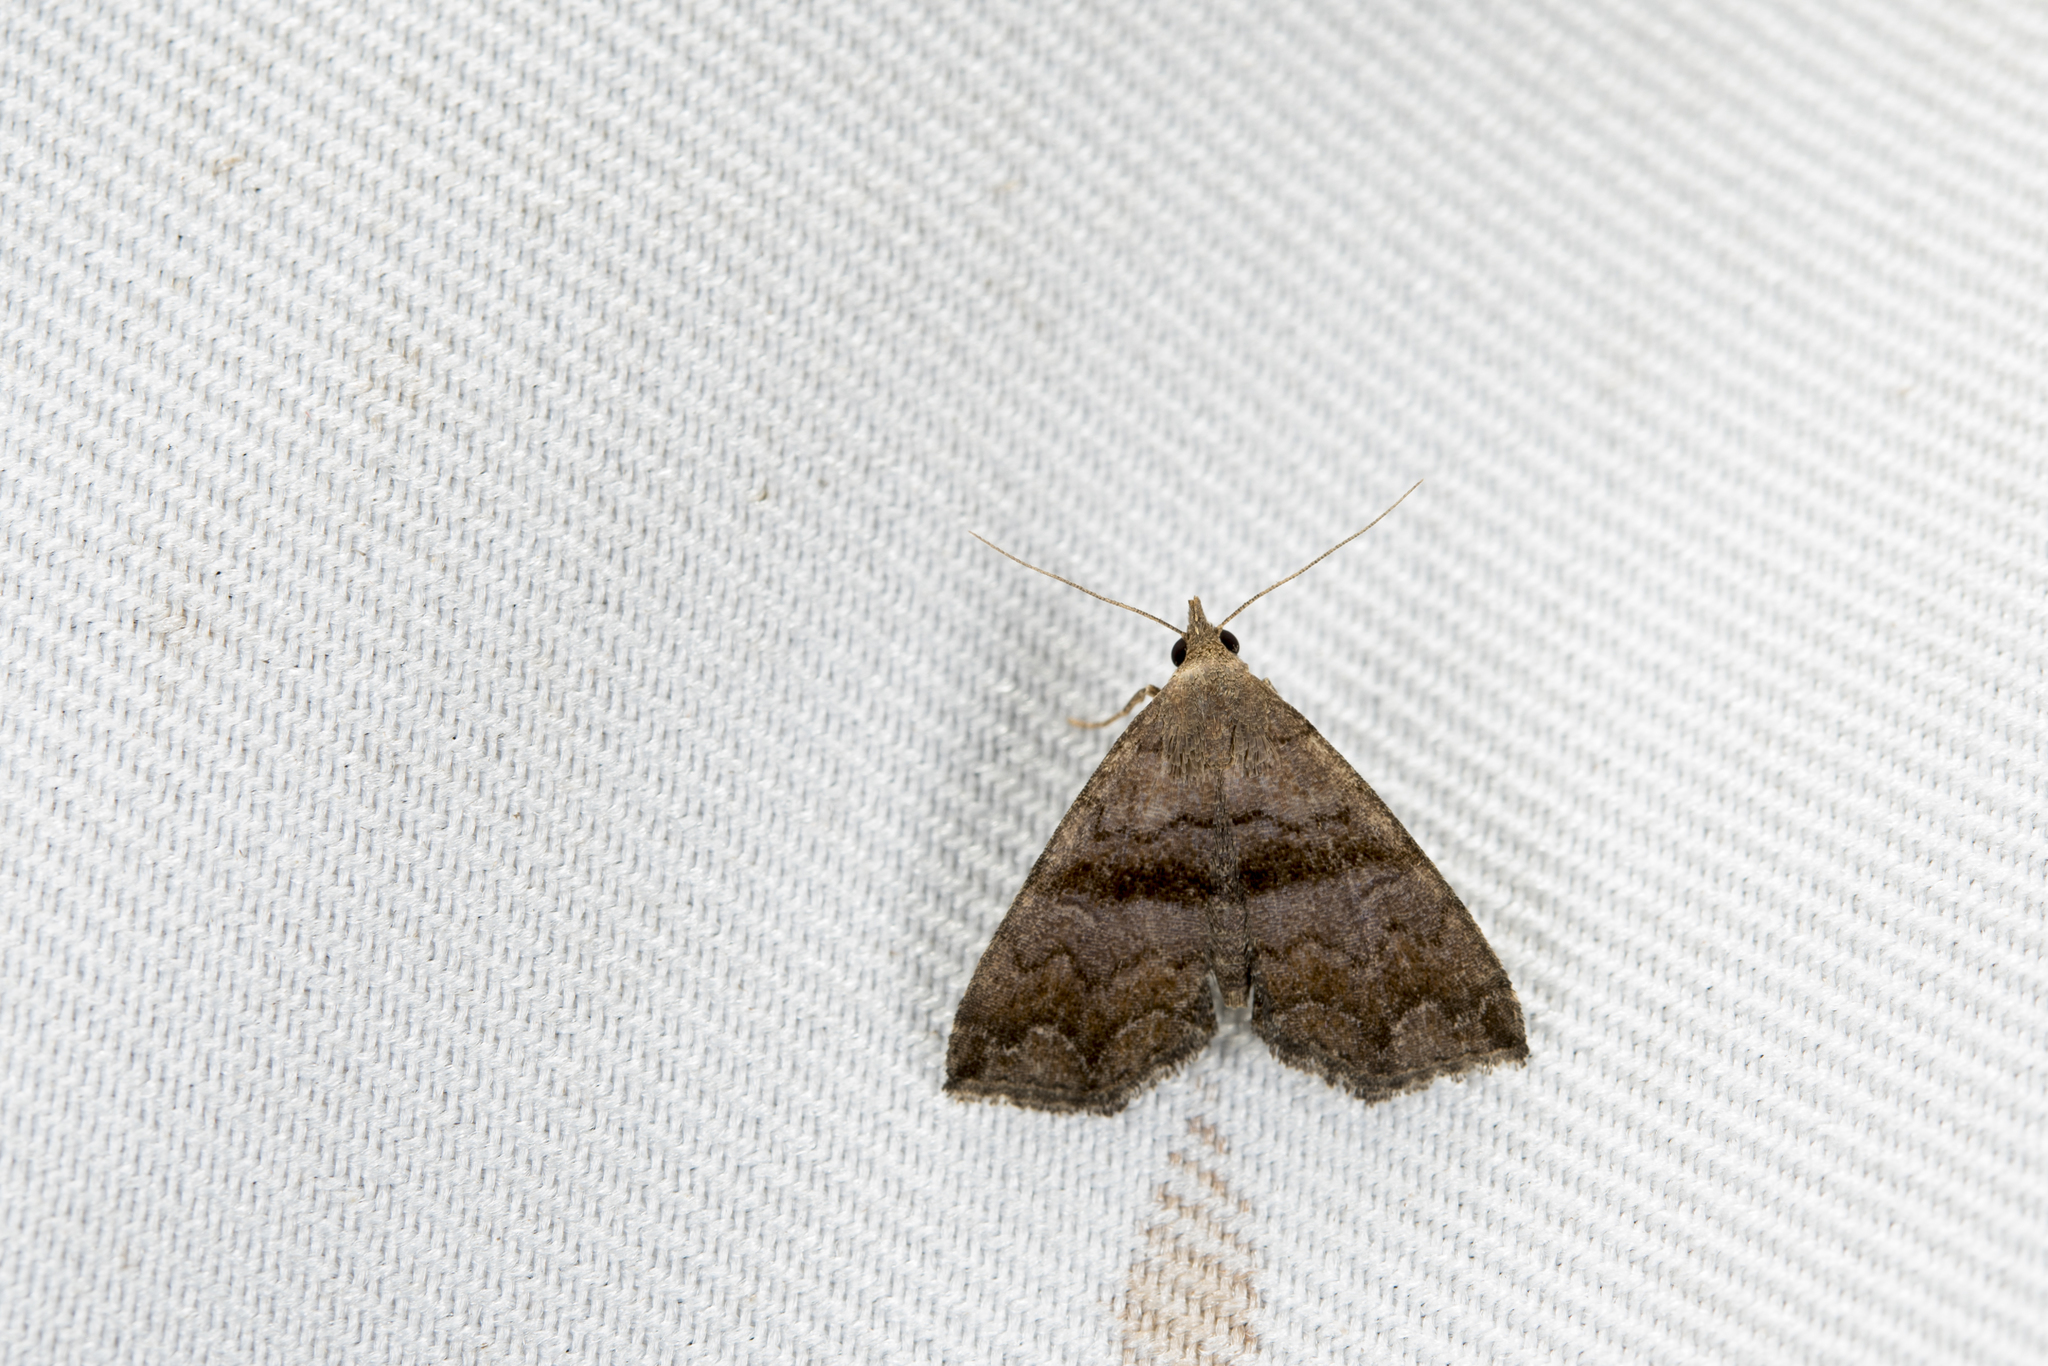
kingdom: Animalia
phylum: Arthropoda
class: Insecta
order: Lepidoptera
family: Erebidae
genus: Polypogon
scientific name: Polypogon Hipoepa fractalis
